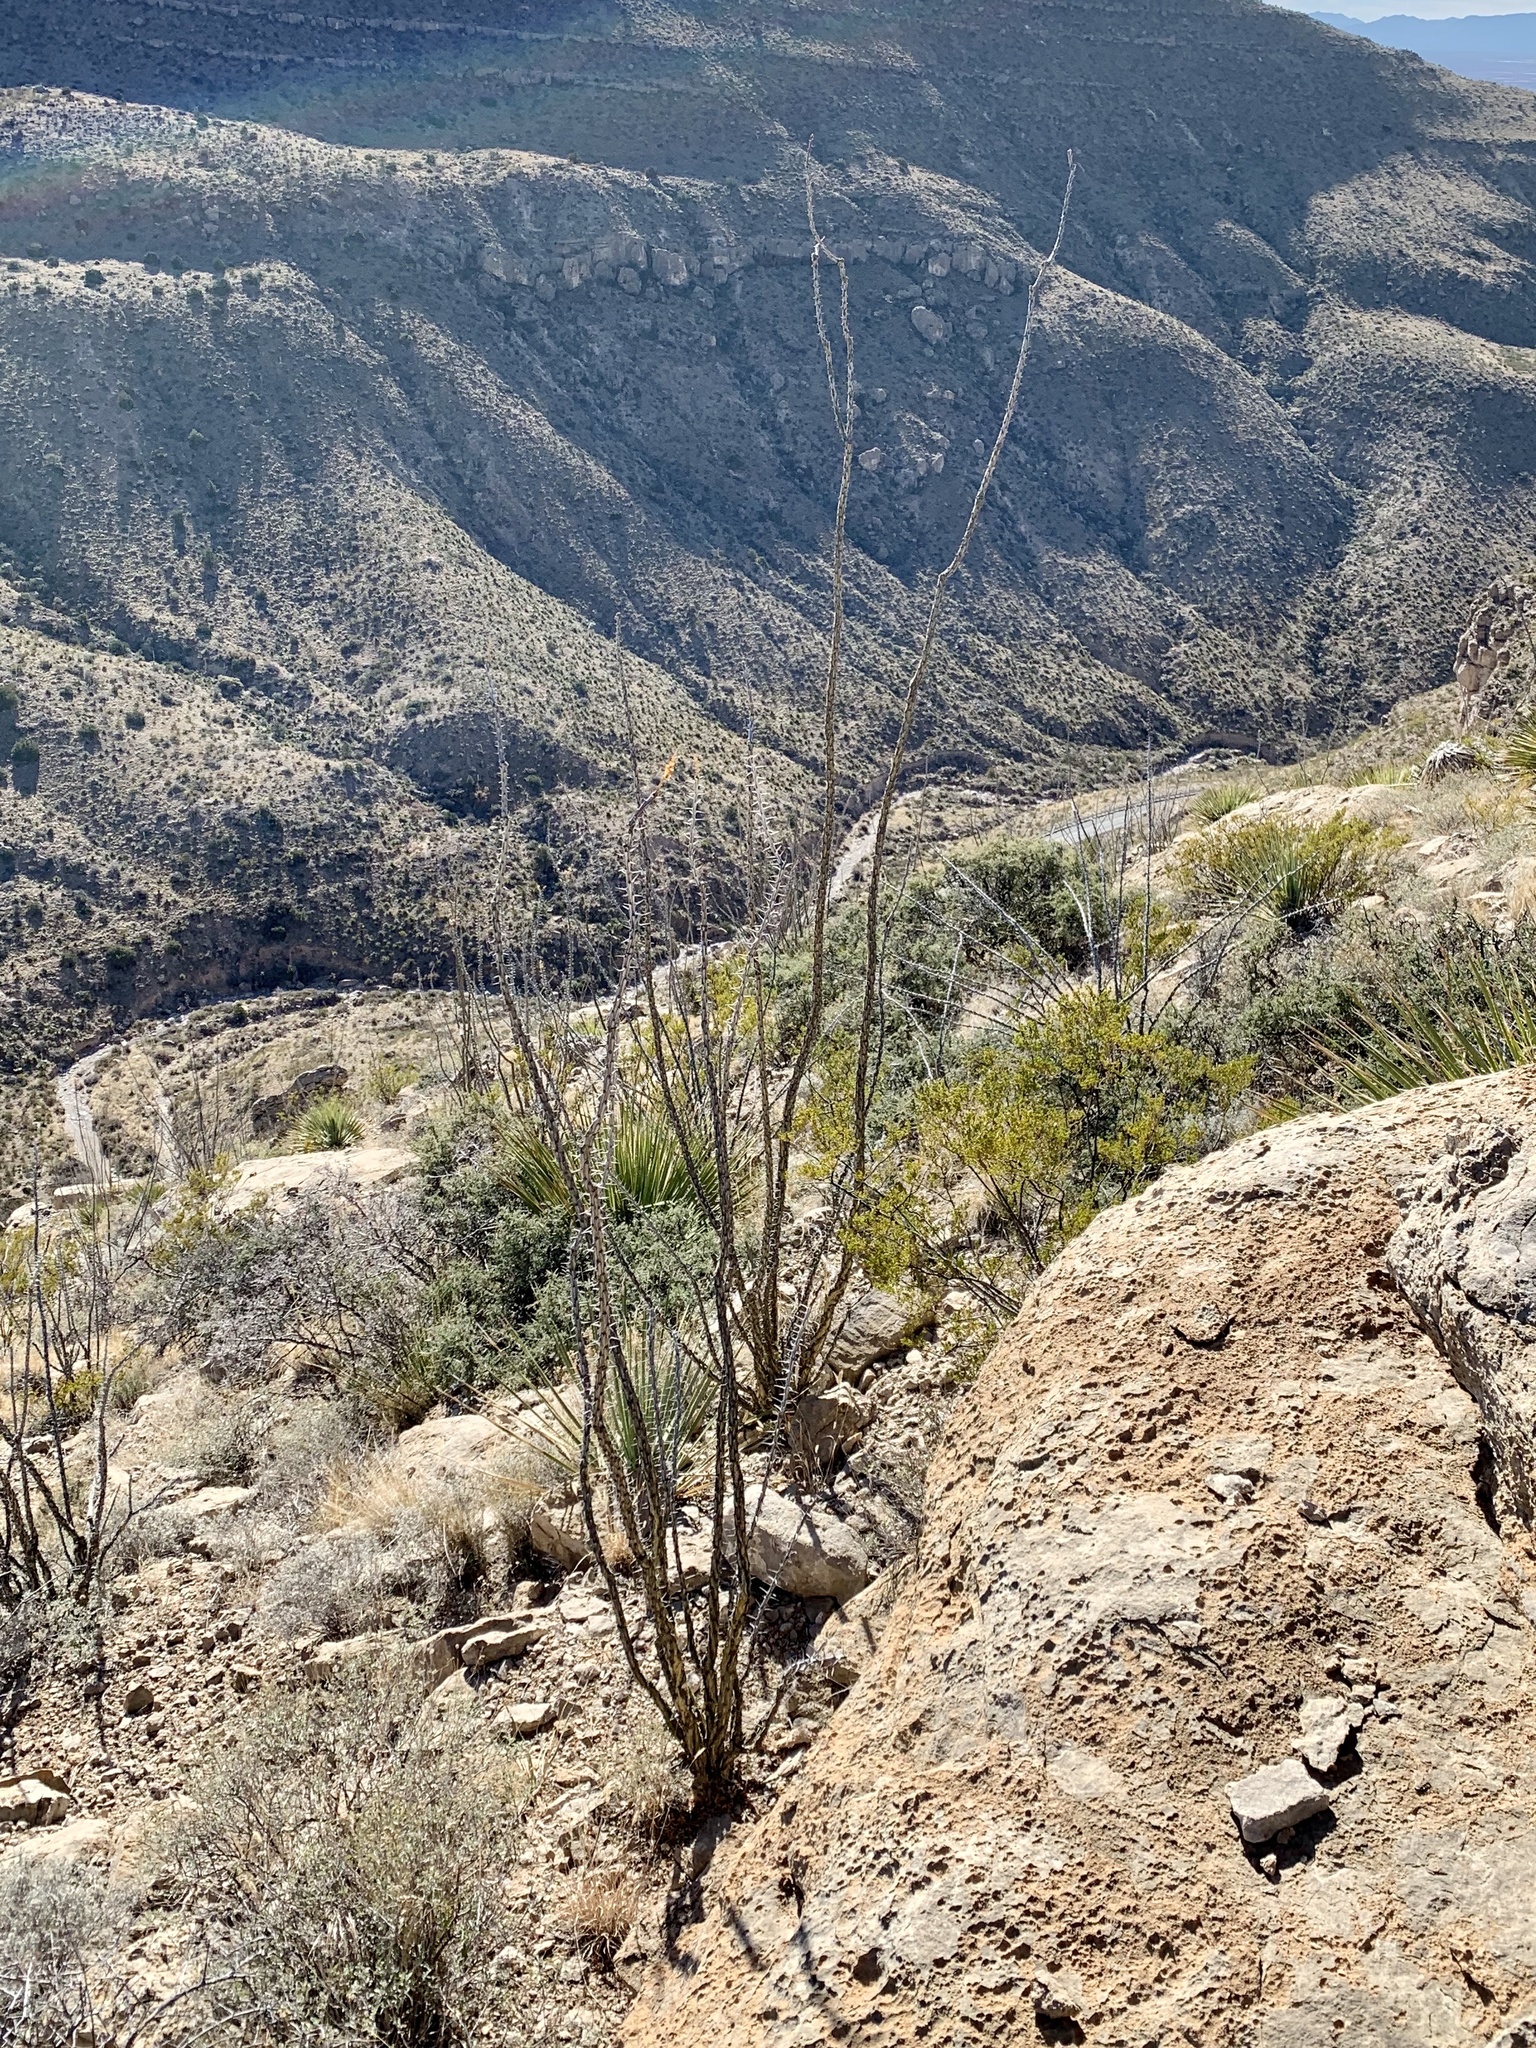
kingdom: Plantae
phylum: Tracheophyta
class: Magnoliopsida
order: Ericales
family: Fouquieriaceae
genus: Fouquieria
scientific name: Fouquieria splendens
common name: Vine-cactus
